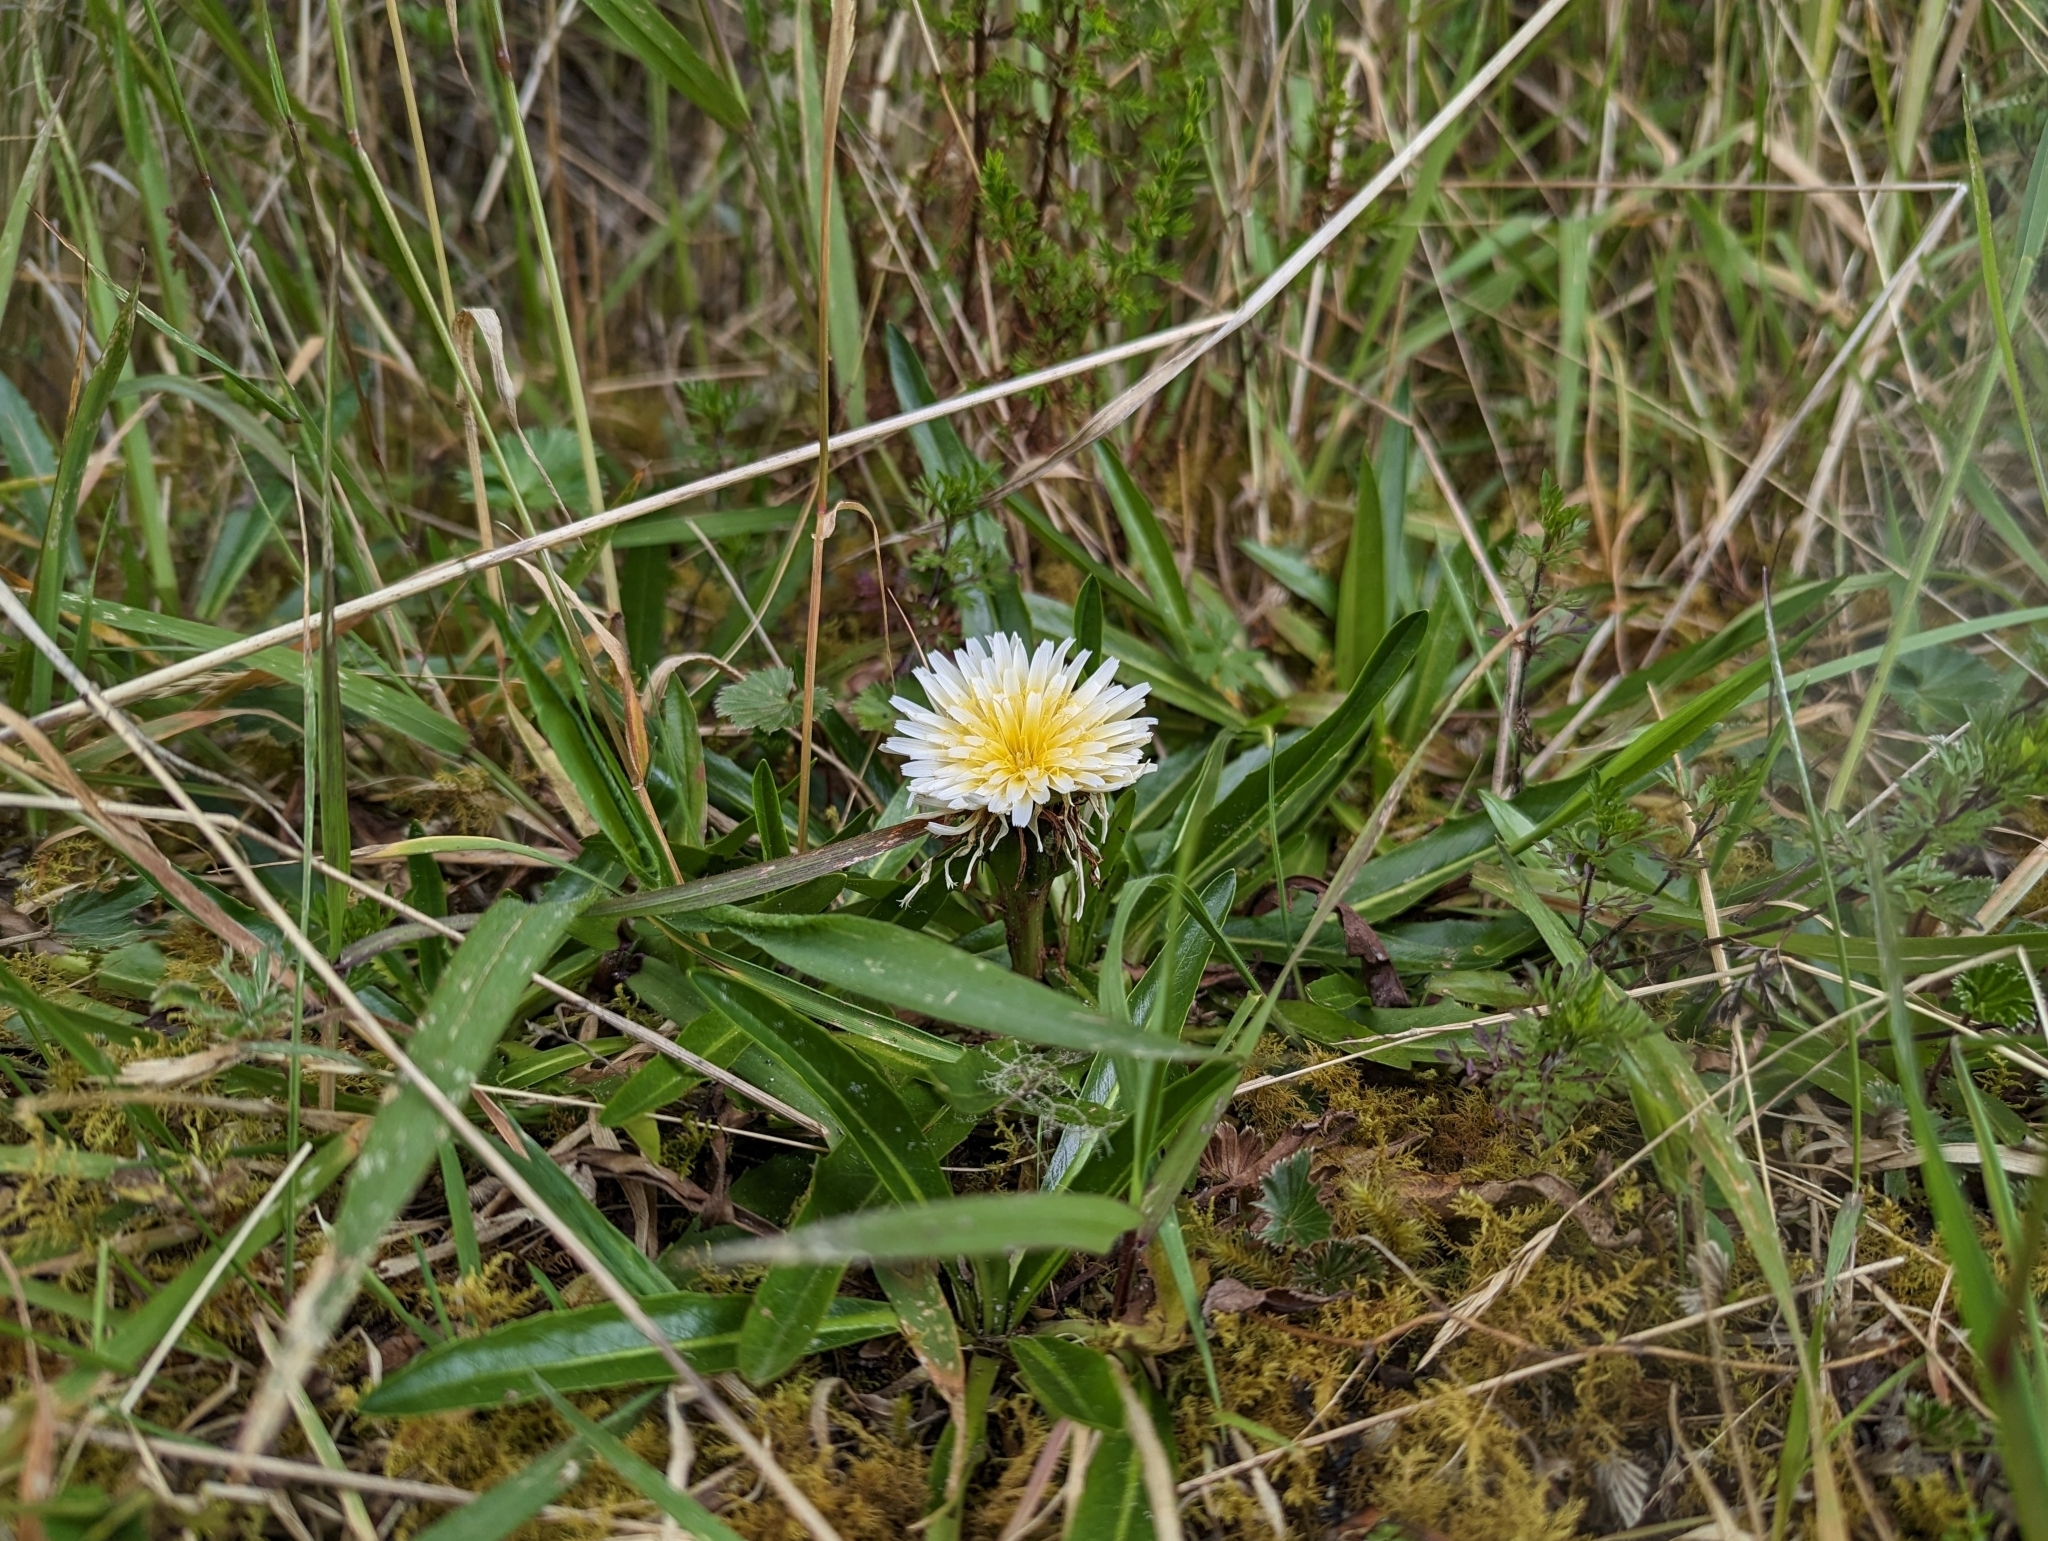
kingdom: Plantae
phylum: Tracheophyta
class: Magnoliopsida
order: Asterales
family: Asteraceae
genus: Hypochaeris
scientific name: Hypochaeris sessiliflora
